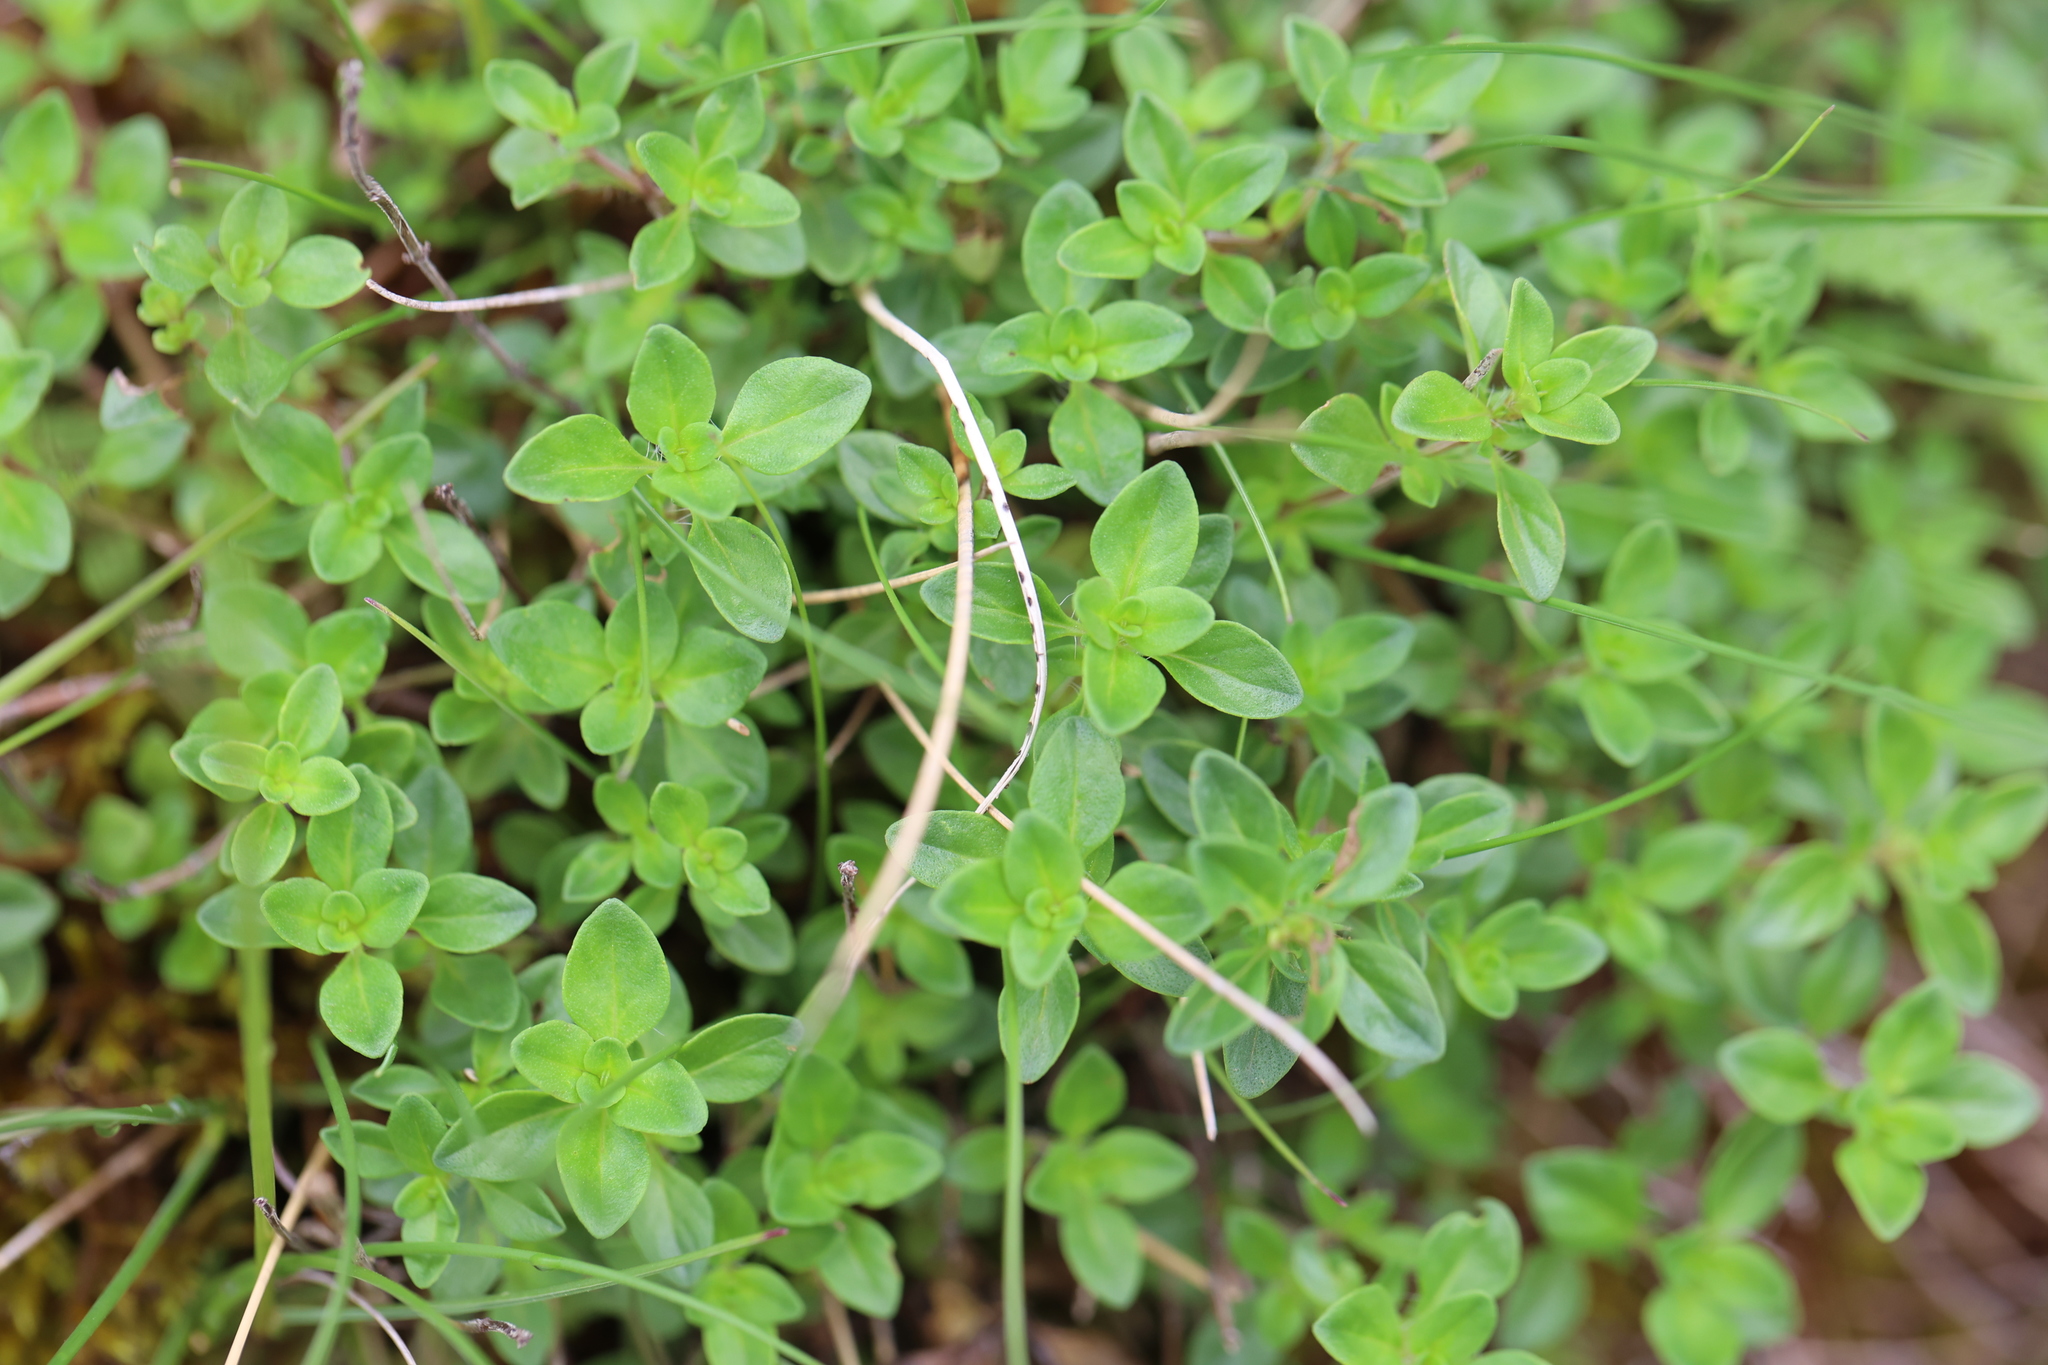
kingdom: Plantae
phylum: Tracheophyta
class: Magnoliopsida
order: Lamiales
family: Lamiaceae
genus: Thymus
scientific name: Thymus pulegioides
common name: Large thyme
